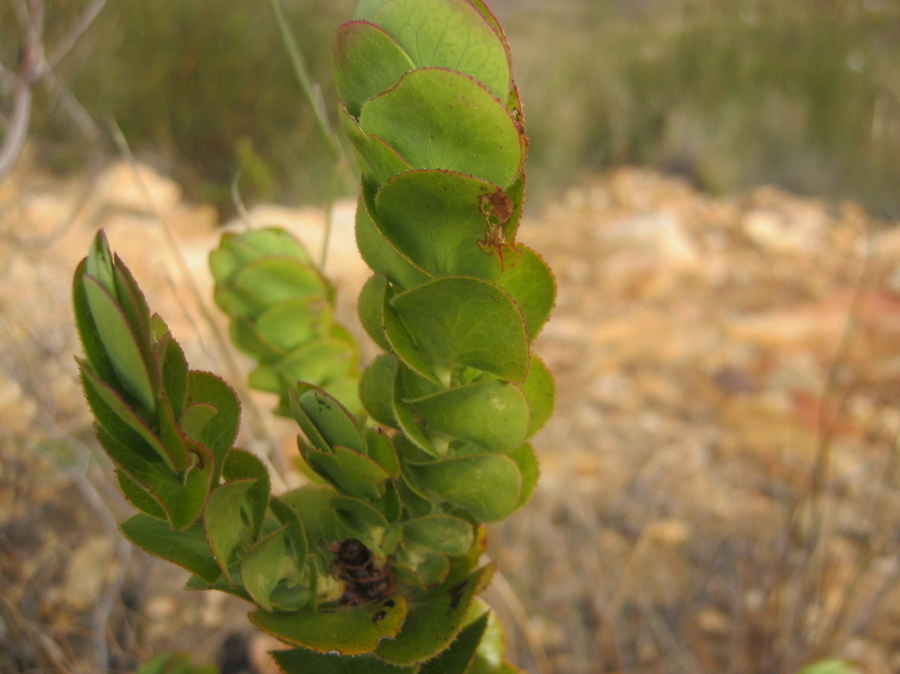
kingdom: Plantae
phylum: Tracheophyta
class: Magnoliopsida
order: Rosales
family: Rosaceae
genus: Cliffortia
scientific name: Cliffortia crenata
